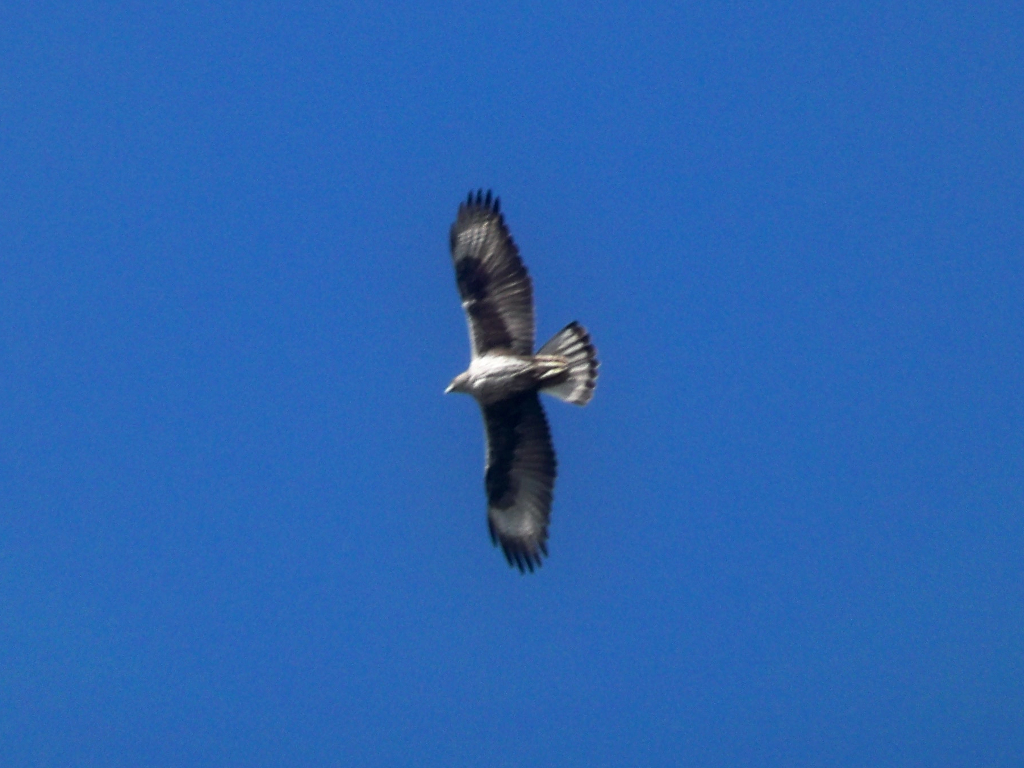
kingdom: Animalia
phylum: Chordata
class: Aves
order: Accipitriformes
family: Accipitridae
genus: Aquila
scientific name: Aquila fasciata
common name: Bonelli's eagle
